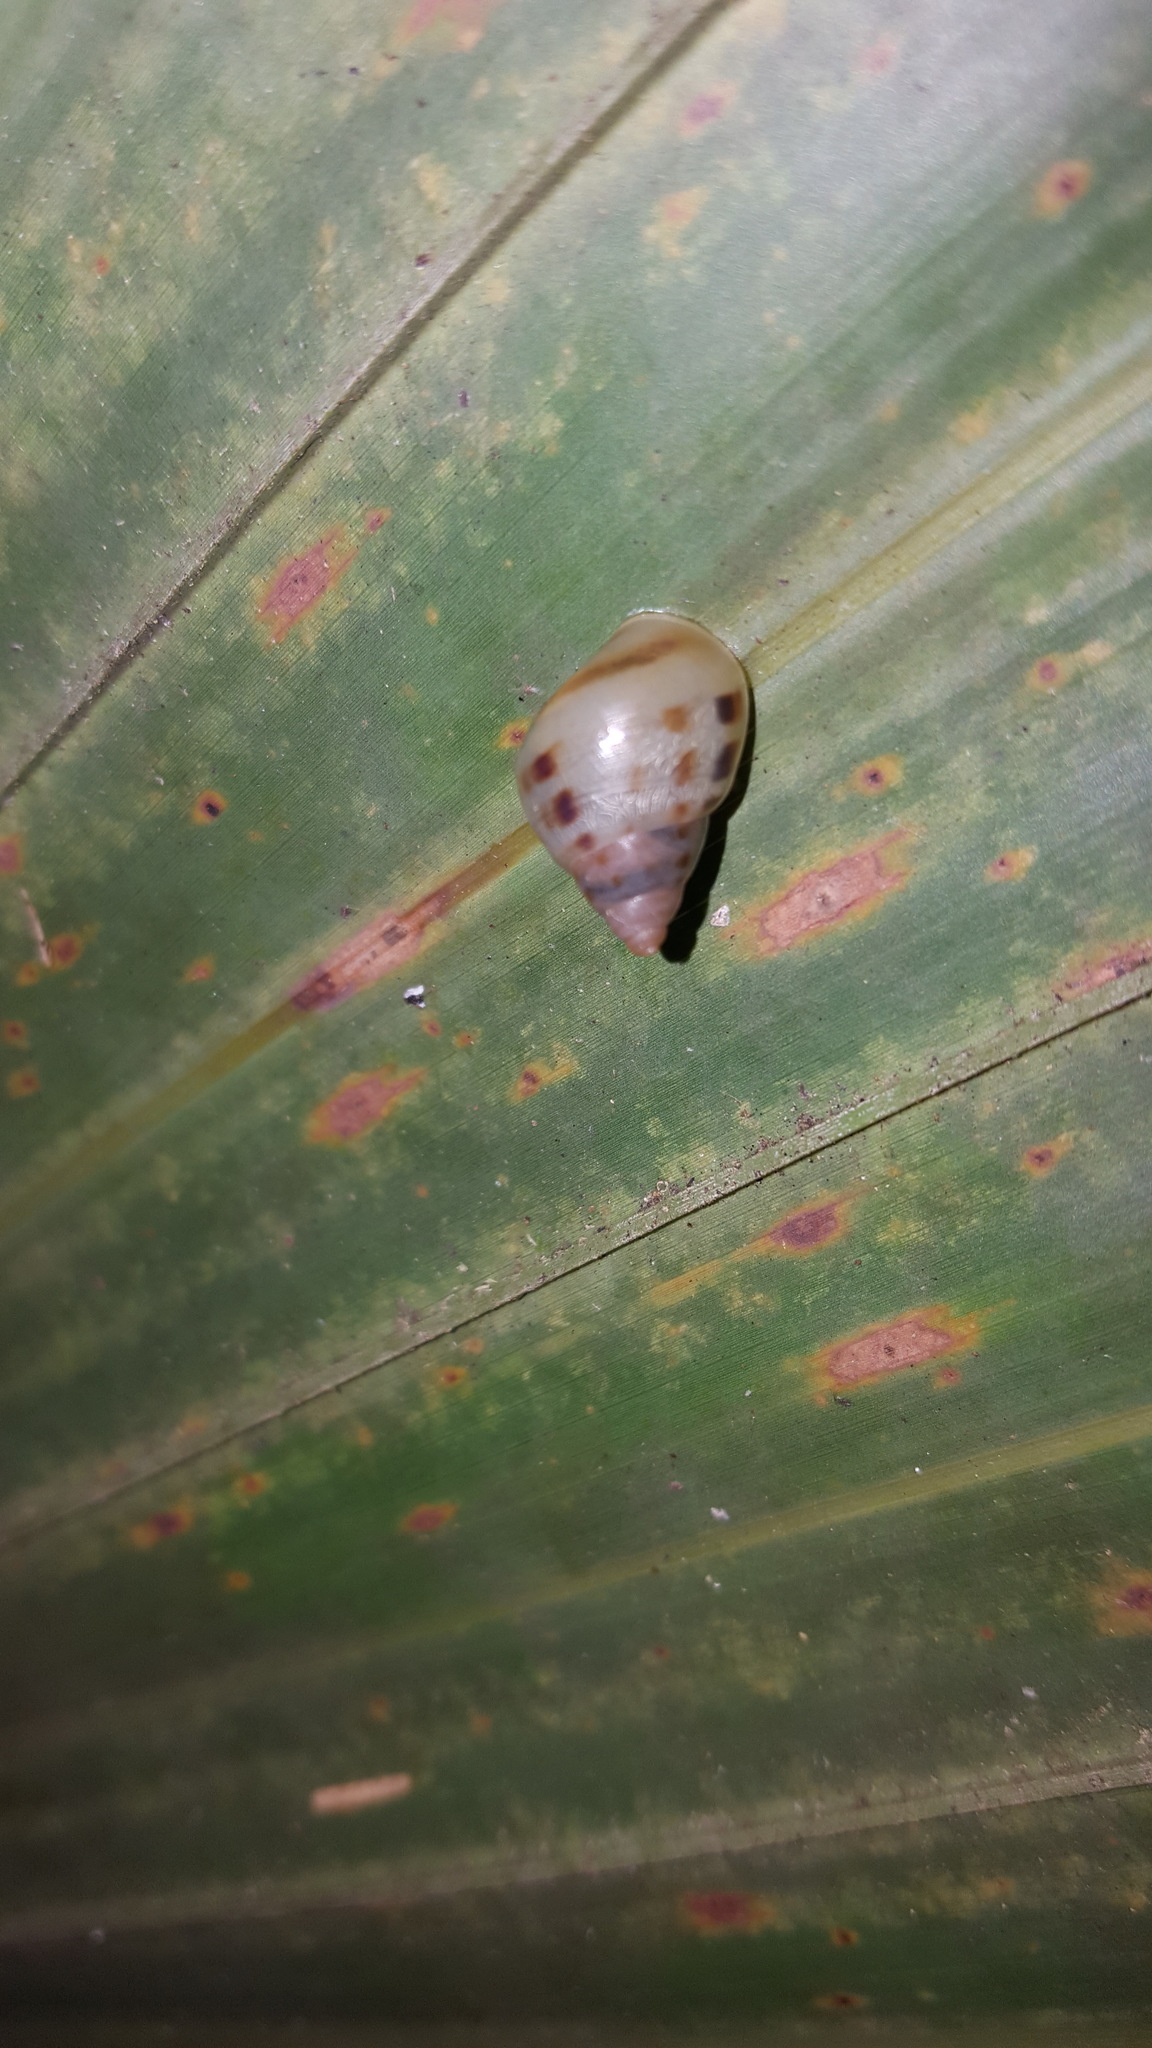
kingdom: Animalia
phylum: Mollusca
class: Gastropoda
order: Stylommatophora
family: Bulimulidae
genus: Drymaeus
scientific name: Drymaeus dormani
